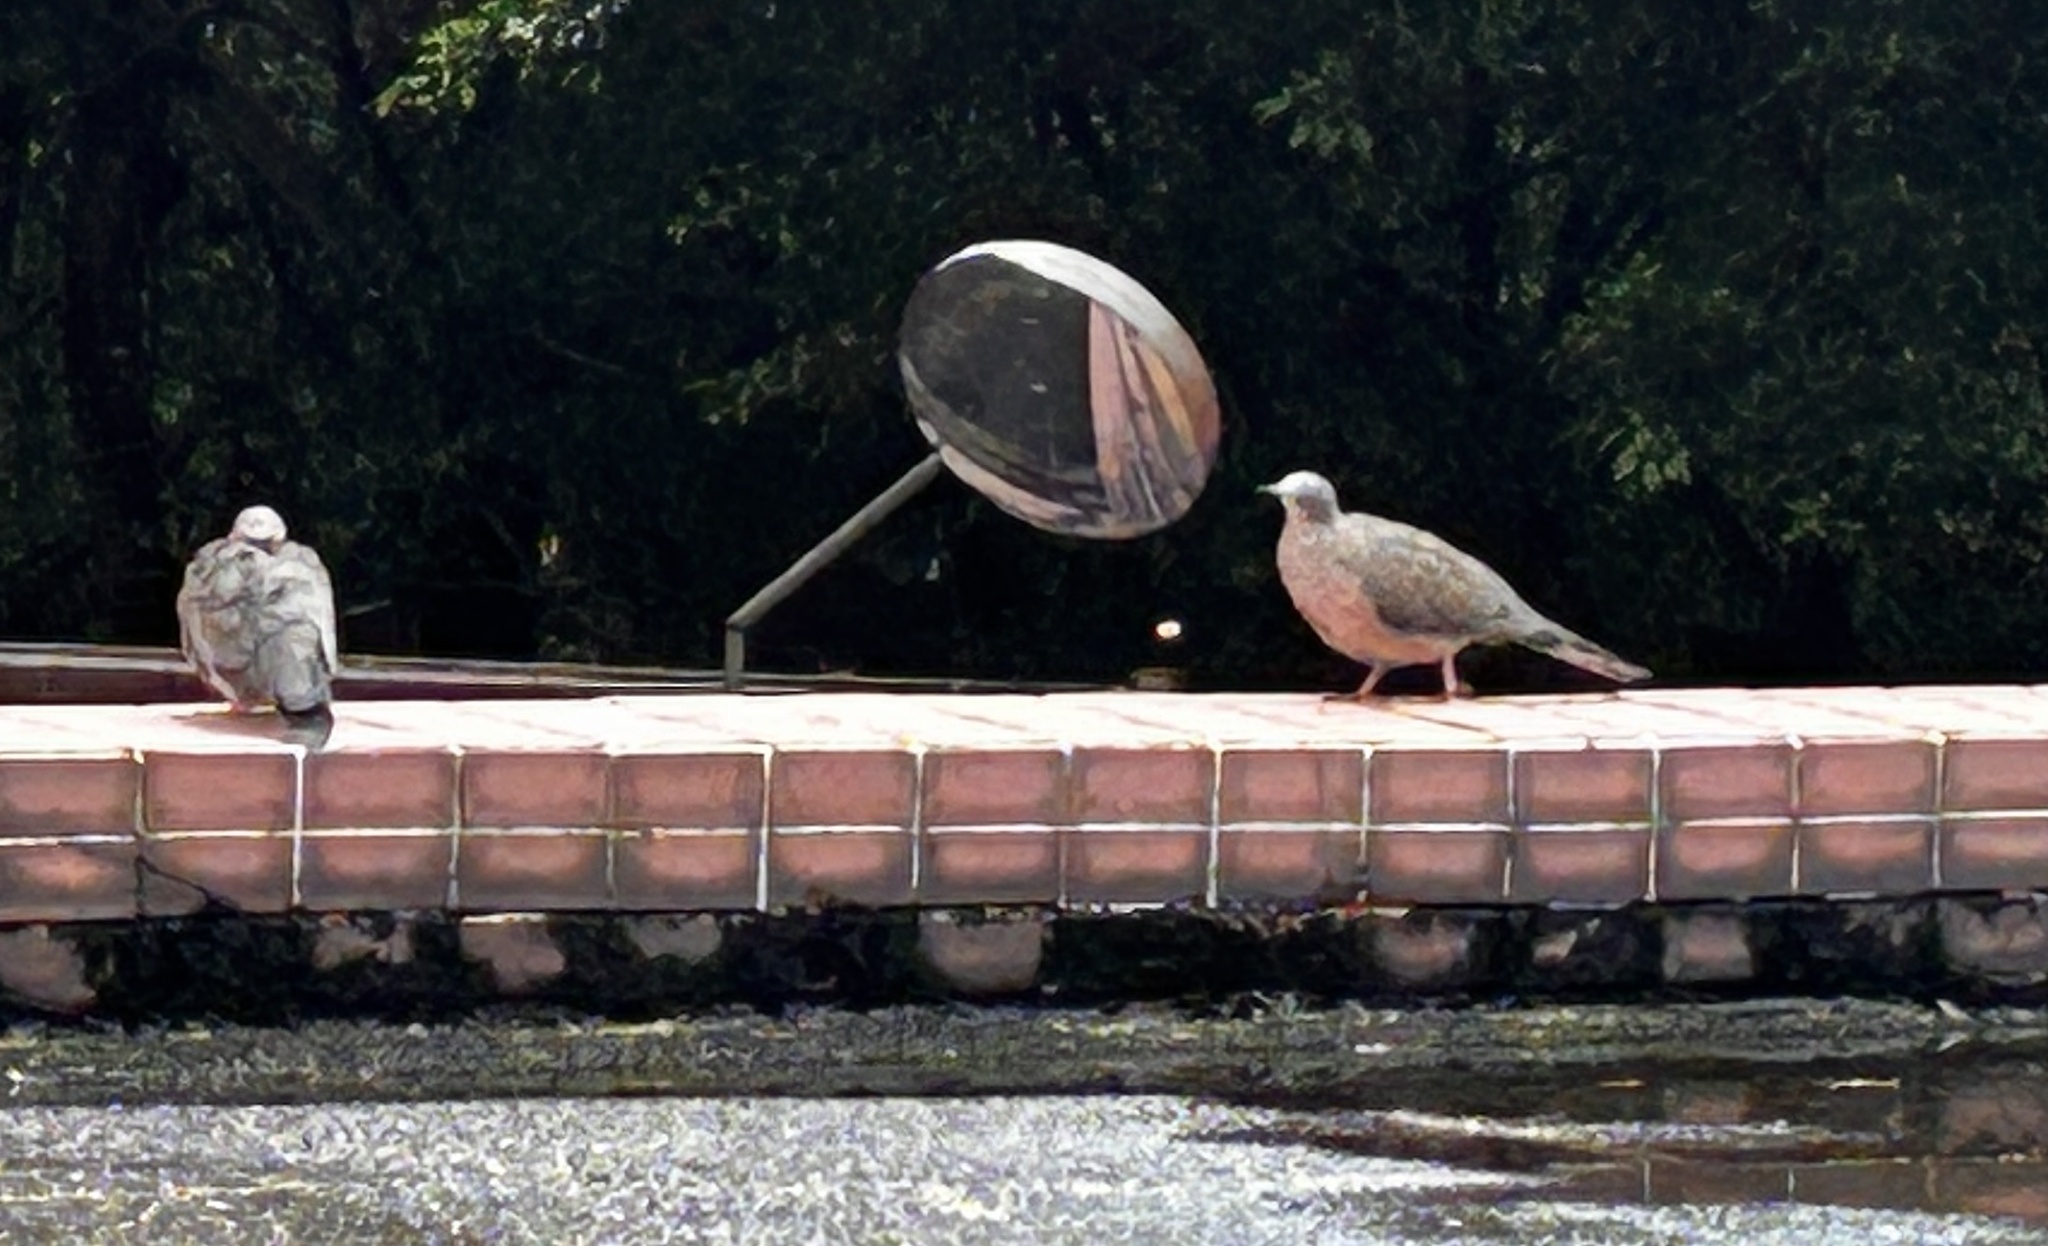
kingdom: Animalia
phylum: Chordata
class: Aves
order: Columbiformes
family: Columbidae
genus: Spilopelia
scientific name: Spilopelia chinensis
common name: Spotted dove
